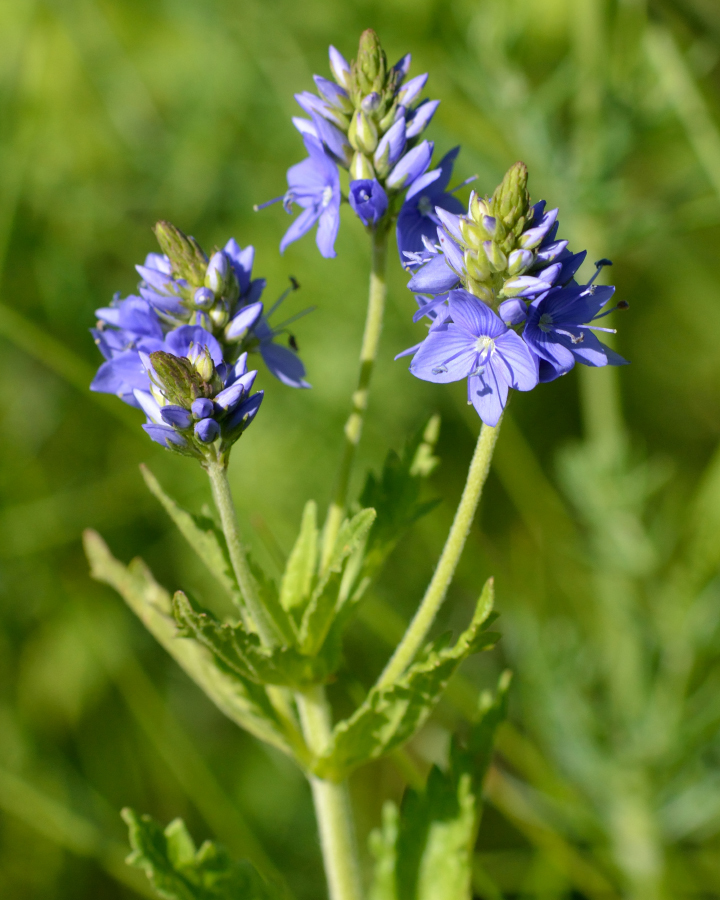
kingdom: Plantae
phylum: Tracheophyta
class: Magnoliopsida
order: Lamiales
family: Plantaginaceae
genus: Veronica
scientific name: Veronica teucrium
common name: Large speedwell
